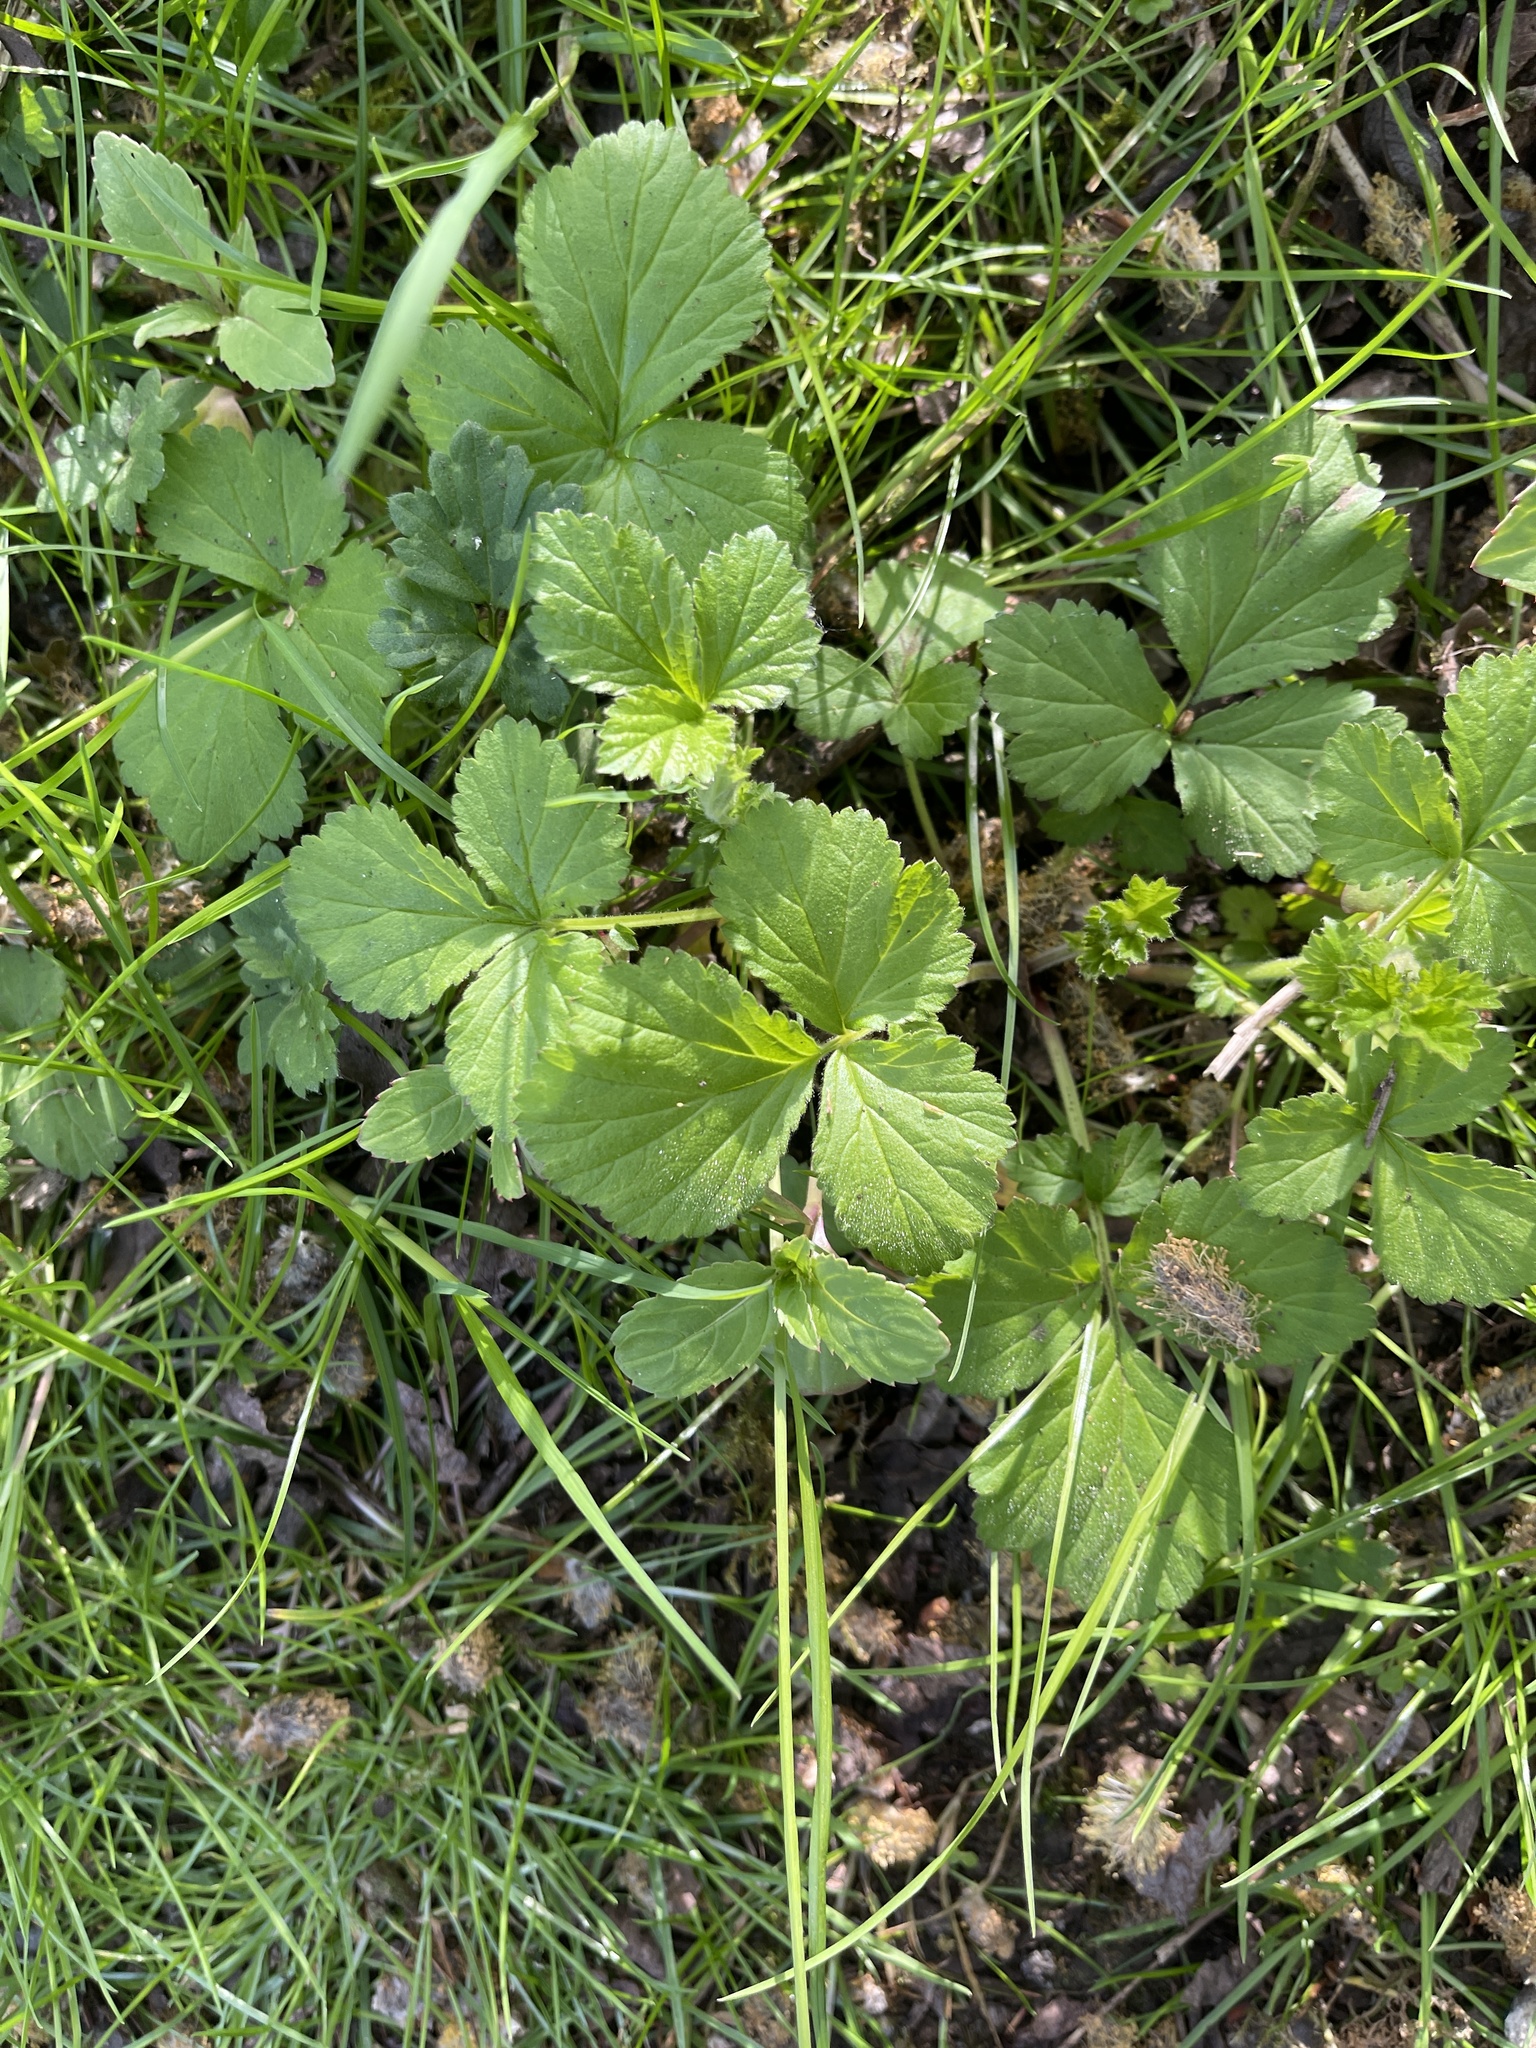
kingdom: Plantae
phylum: Tracheophyta
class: Magnoliopsida
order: Rosales
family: Rosaceae
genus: Geum
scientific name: Geum urbanum
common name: Wood avens
